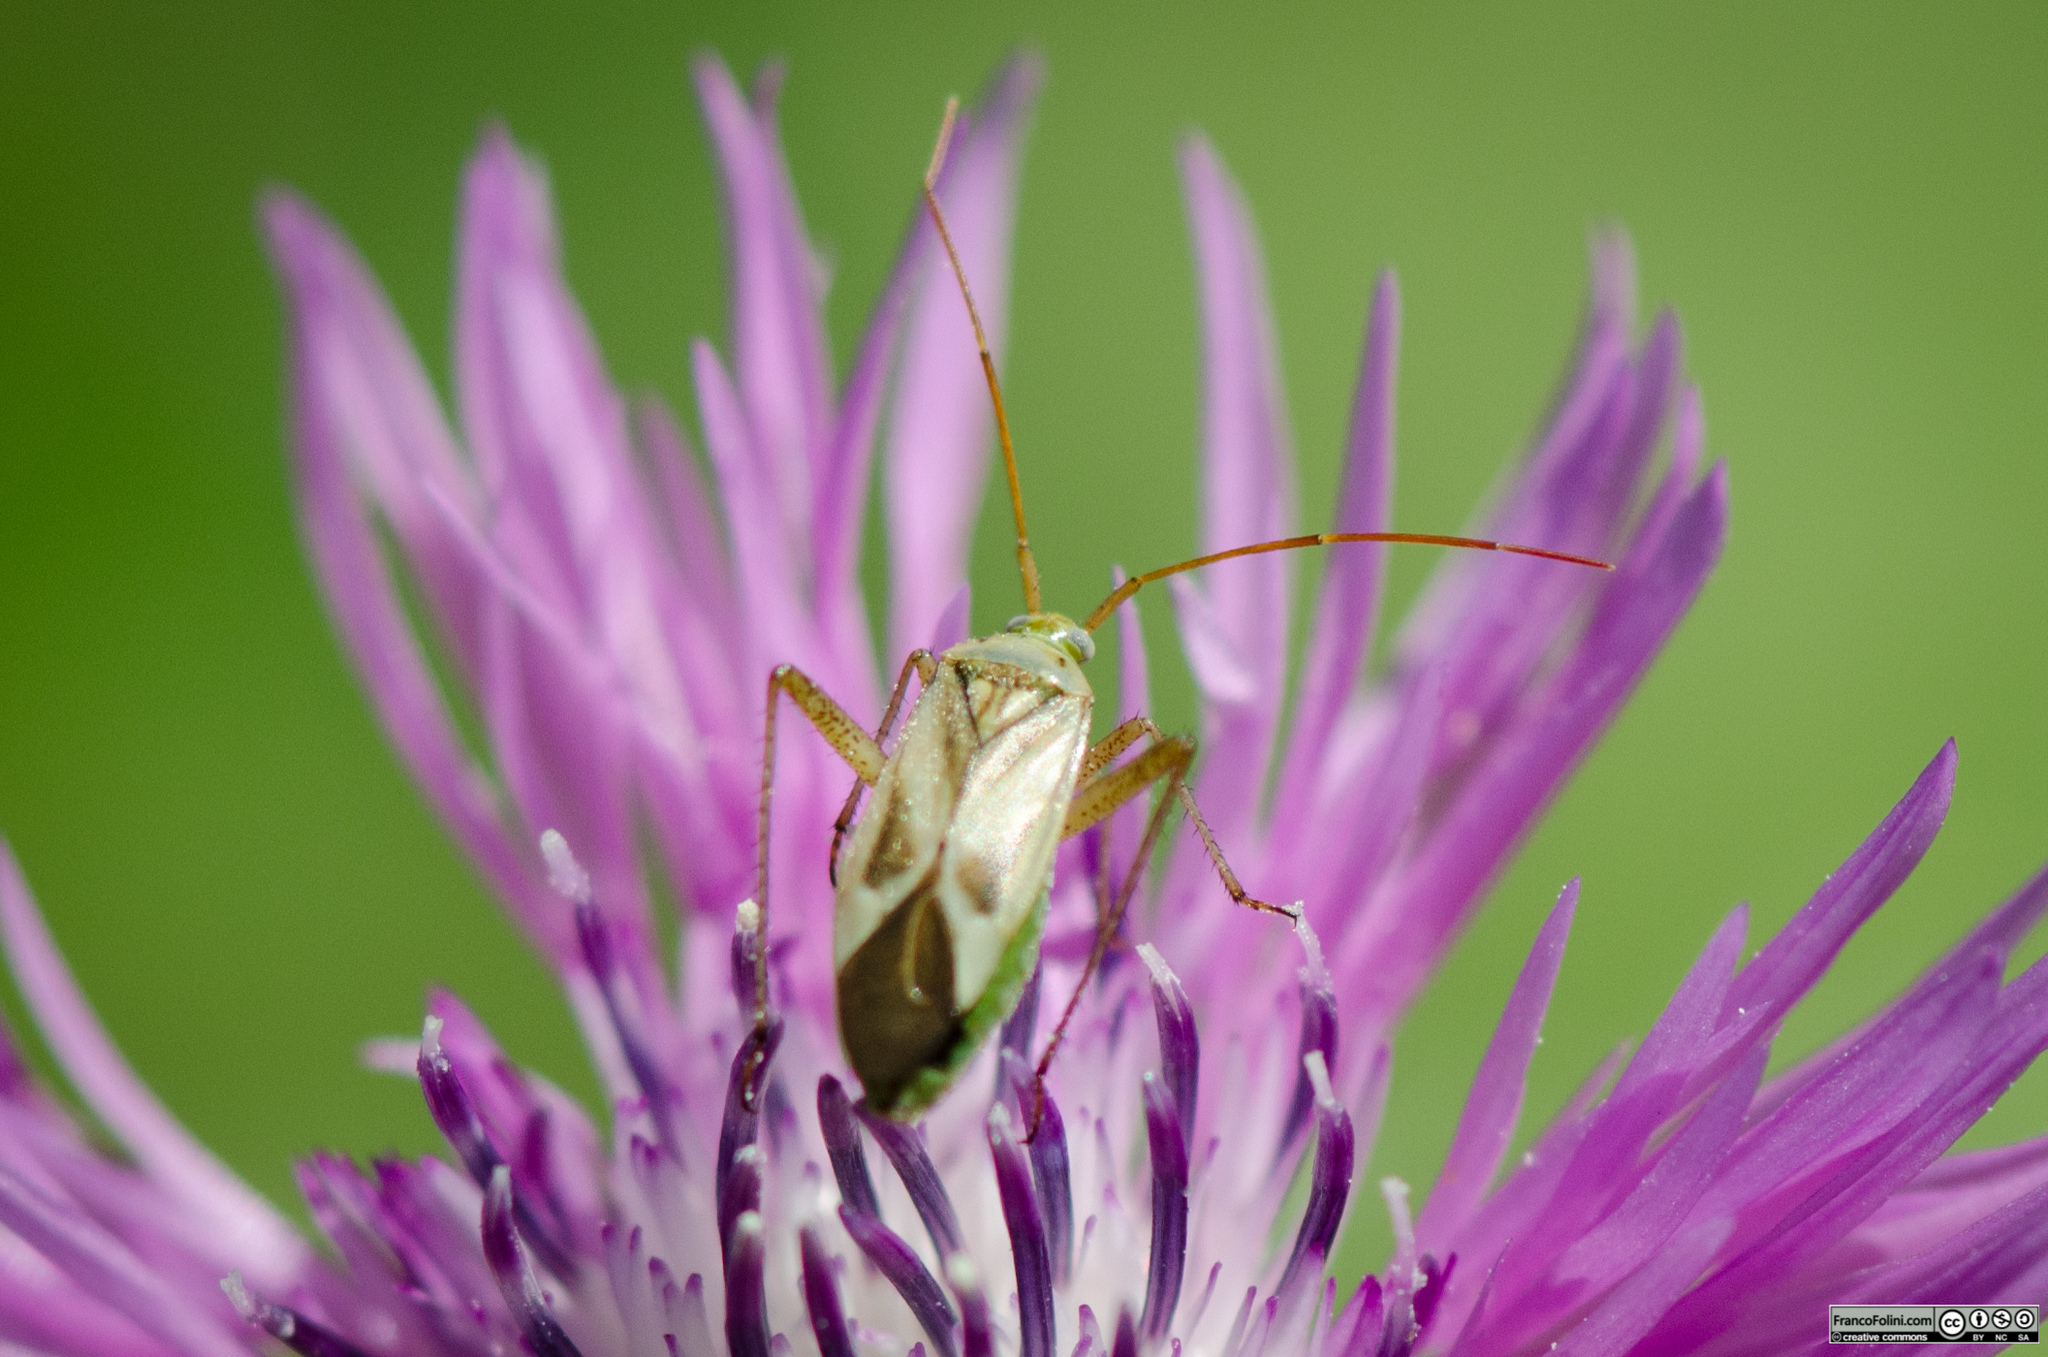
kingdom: Animalia
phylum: Arthropoda
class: Insecta
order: Hemiptera
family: Miridae
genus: Adelphocoris
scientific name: Adelphocoris lineolatus
